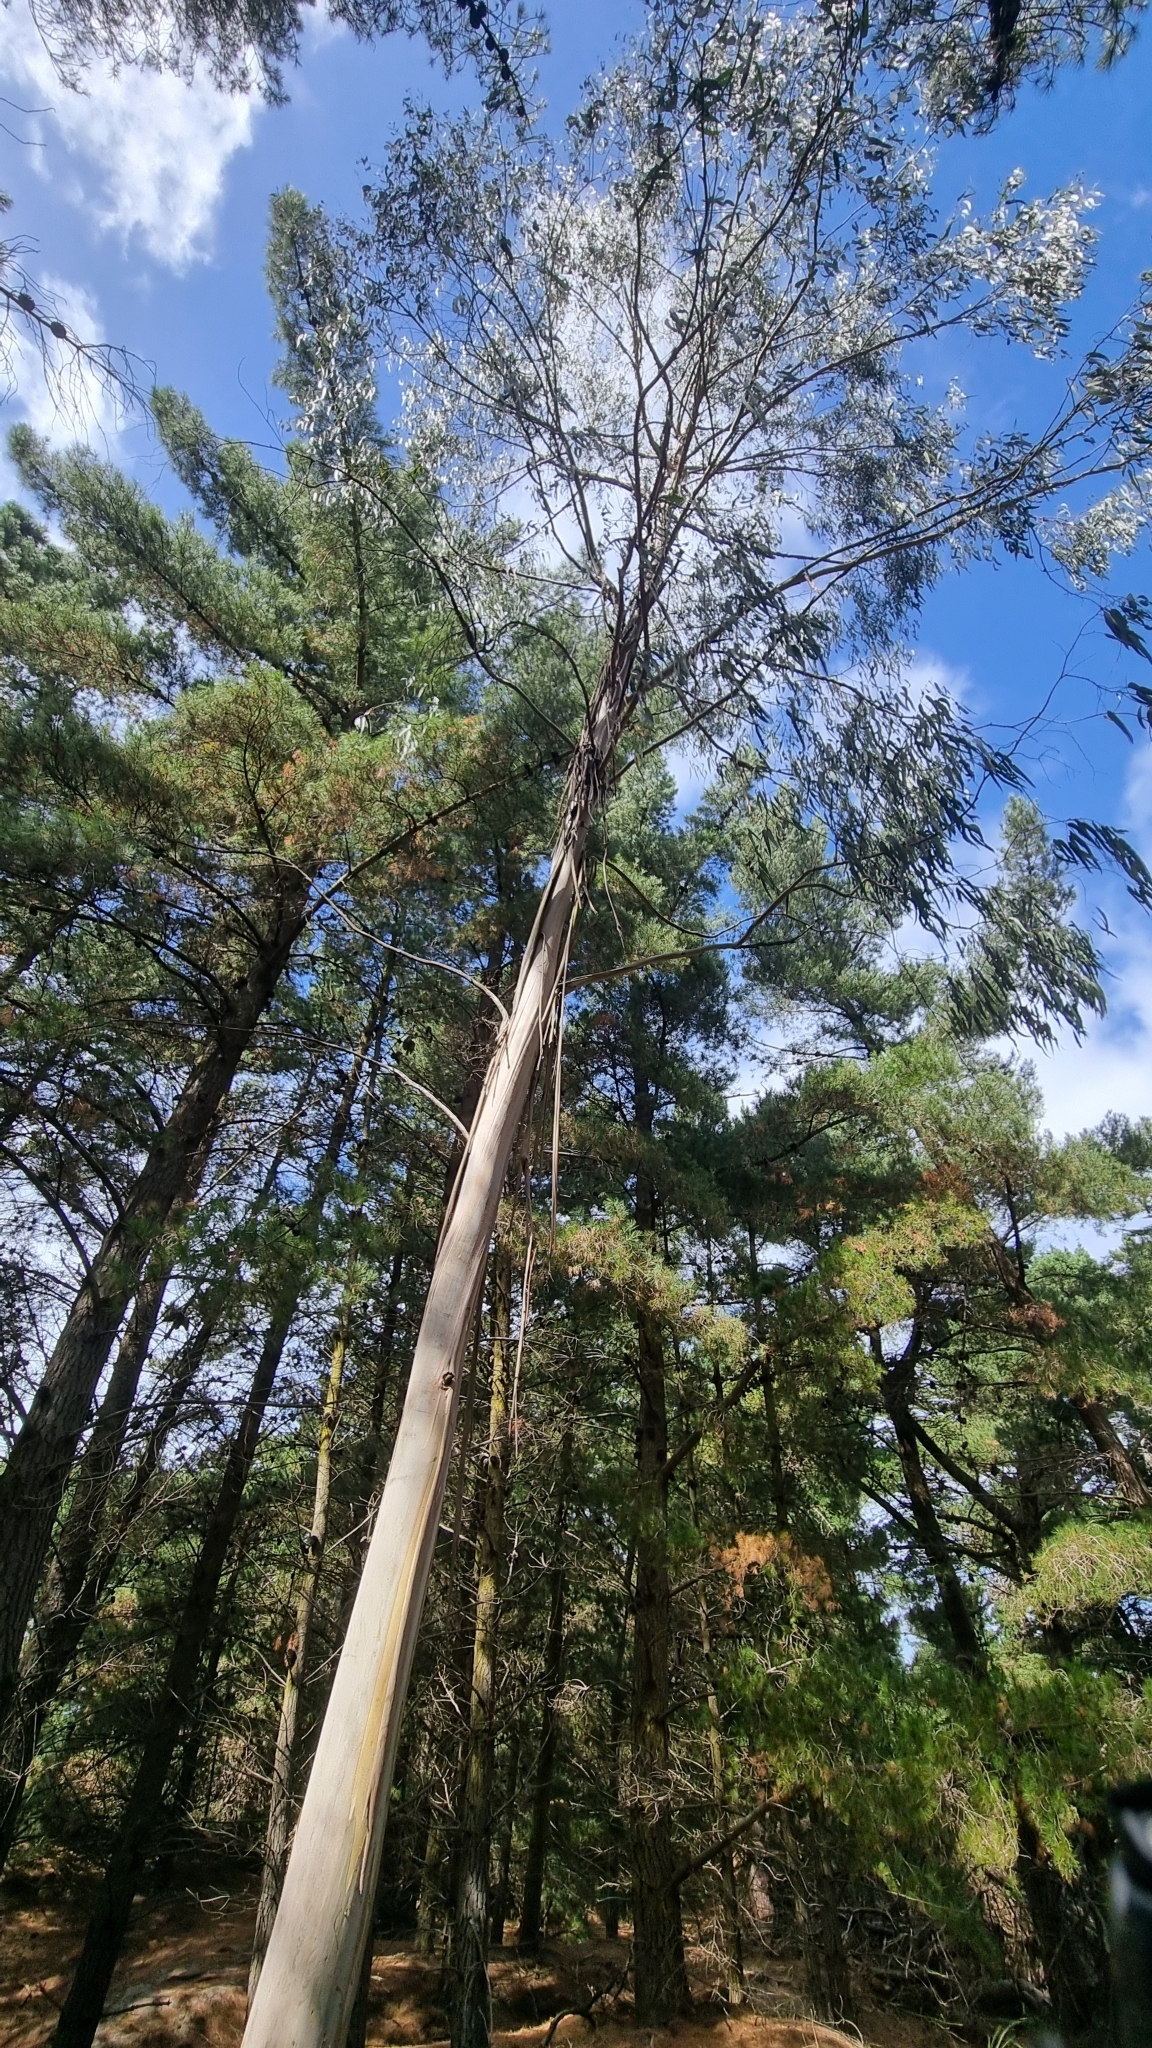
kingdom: Plantae
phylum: Tracheophyta
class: Magnoliopsida
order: Myrtales
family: Myrtaceae
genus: Eucalyptus
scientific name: Eucalyptus viminalis
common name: Manna gum
